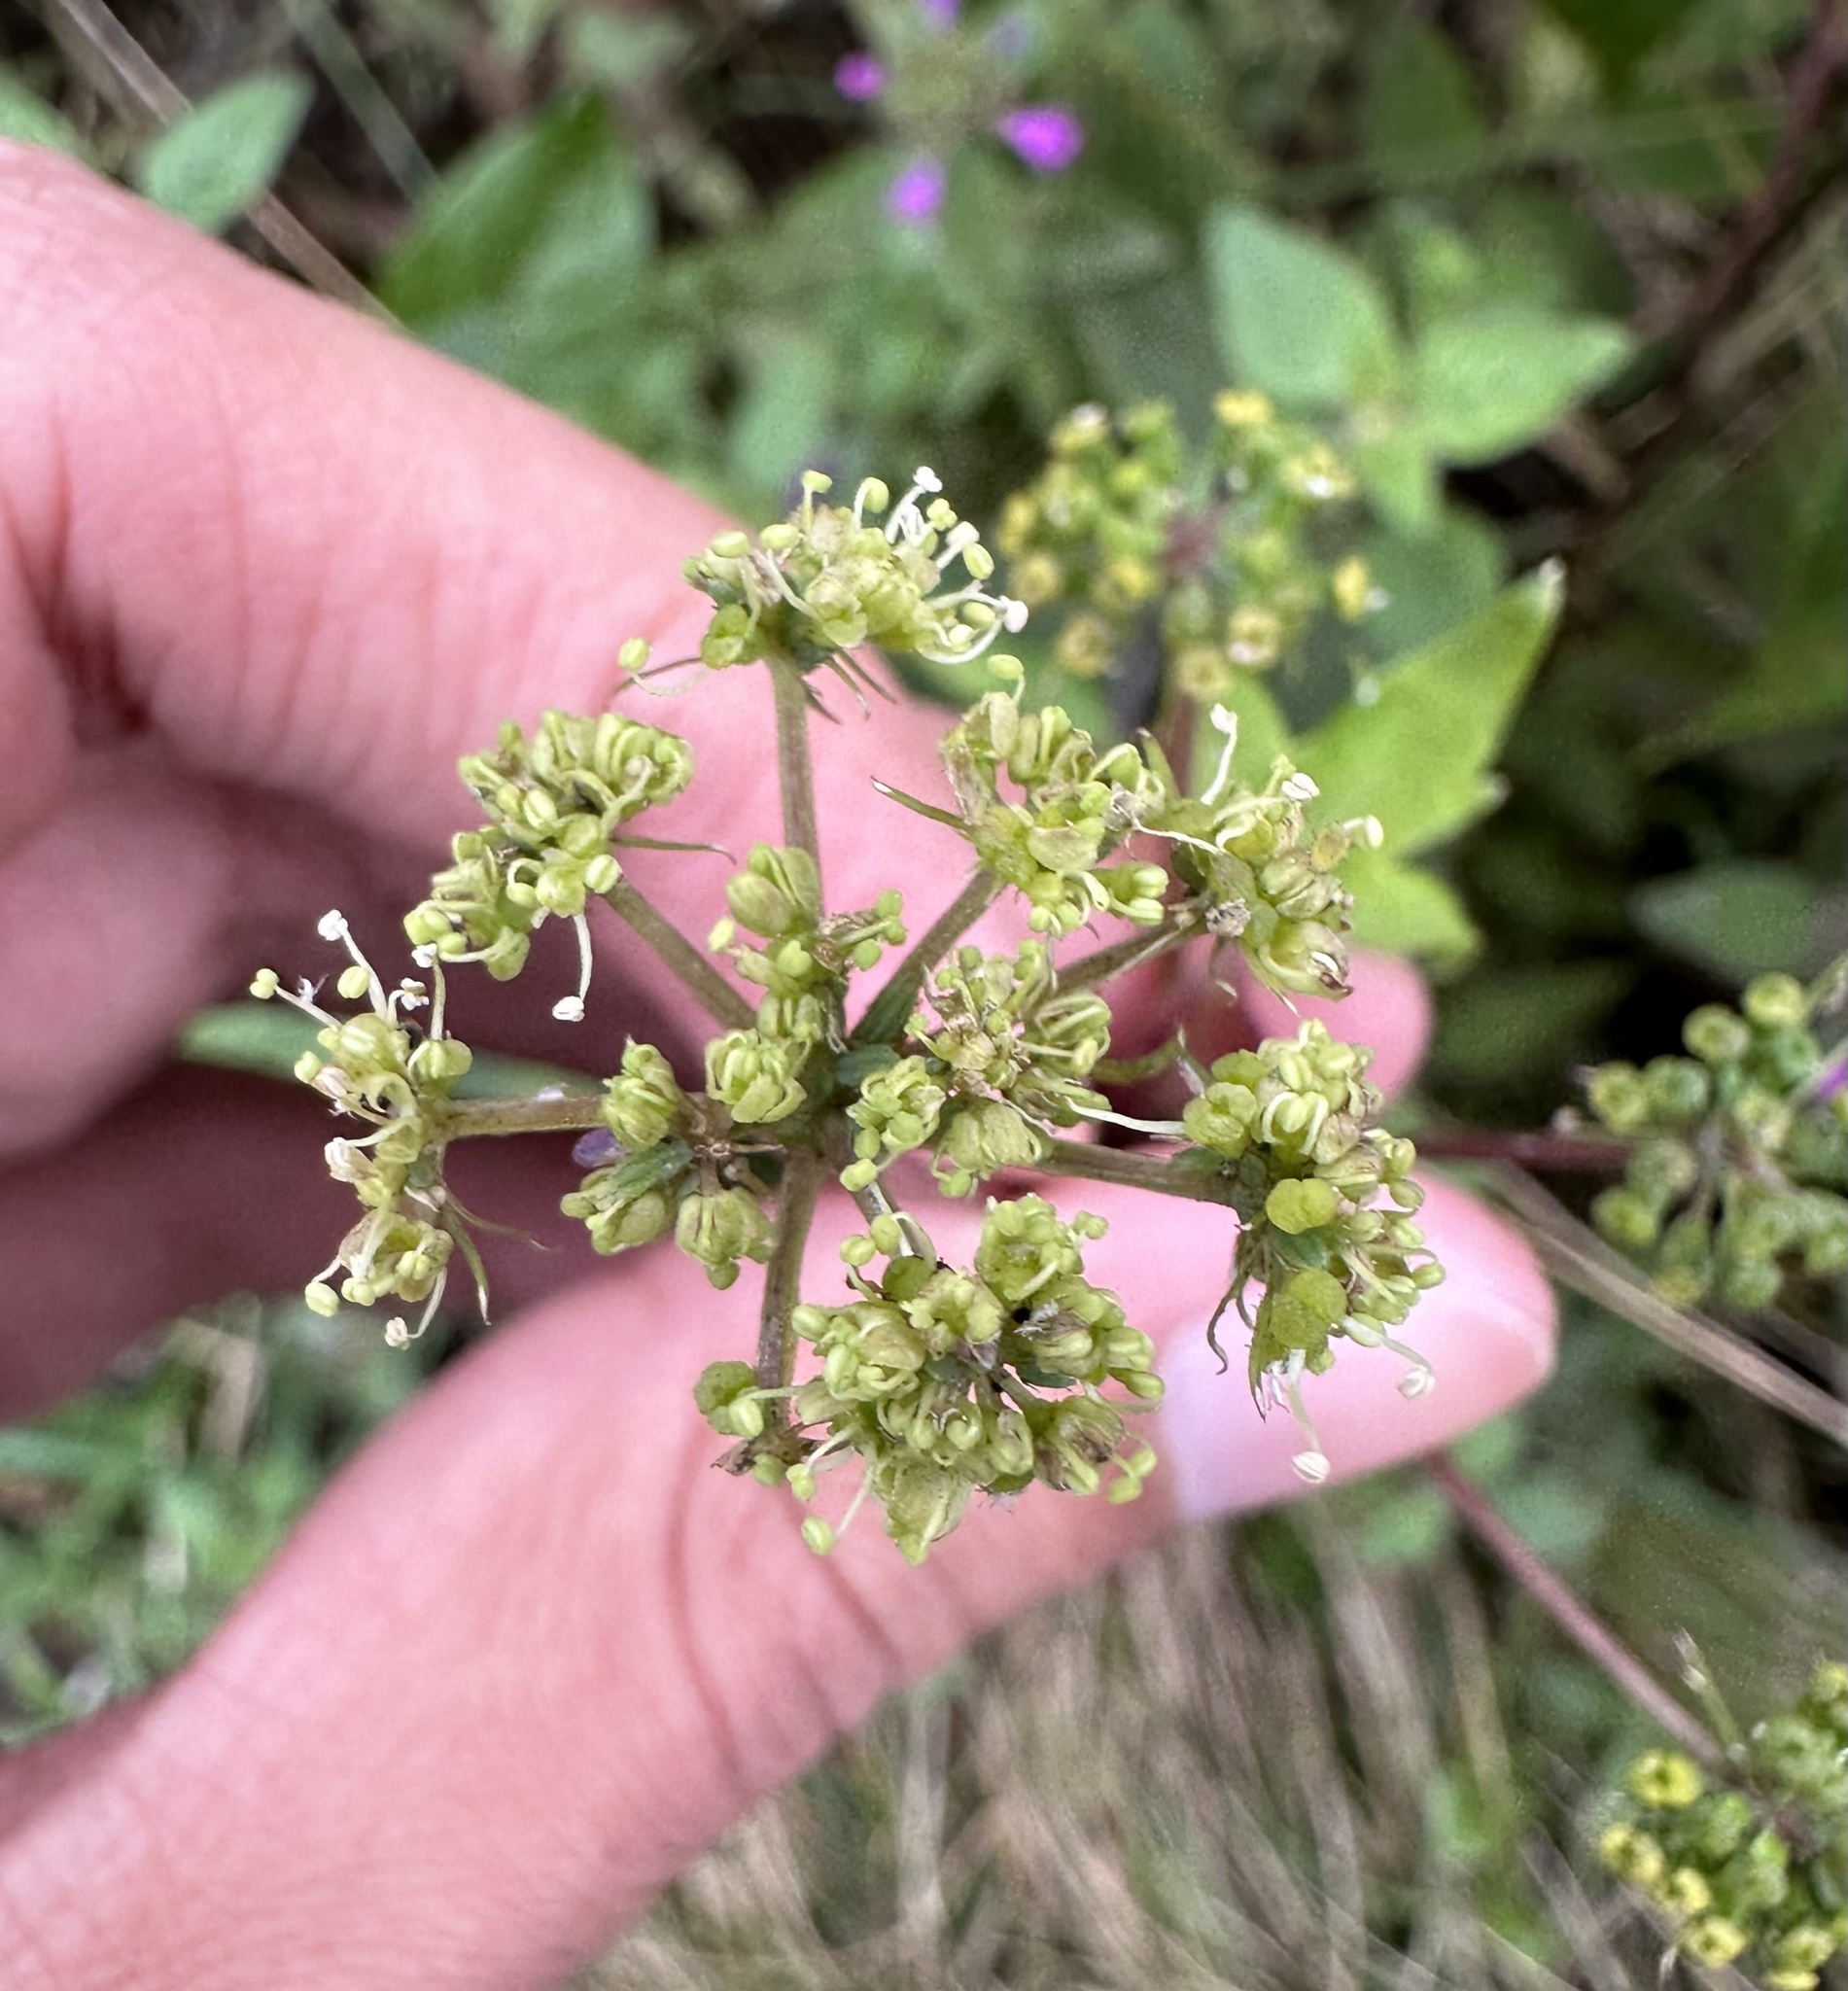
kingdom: Plantae
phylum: Tracheophyta
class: Magnoliopsida
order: Apiales
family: Apiaceae
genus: Angelica
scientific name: Angelica triquinata
